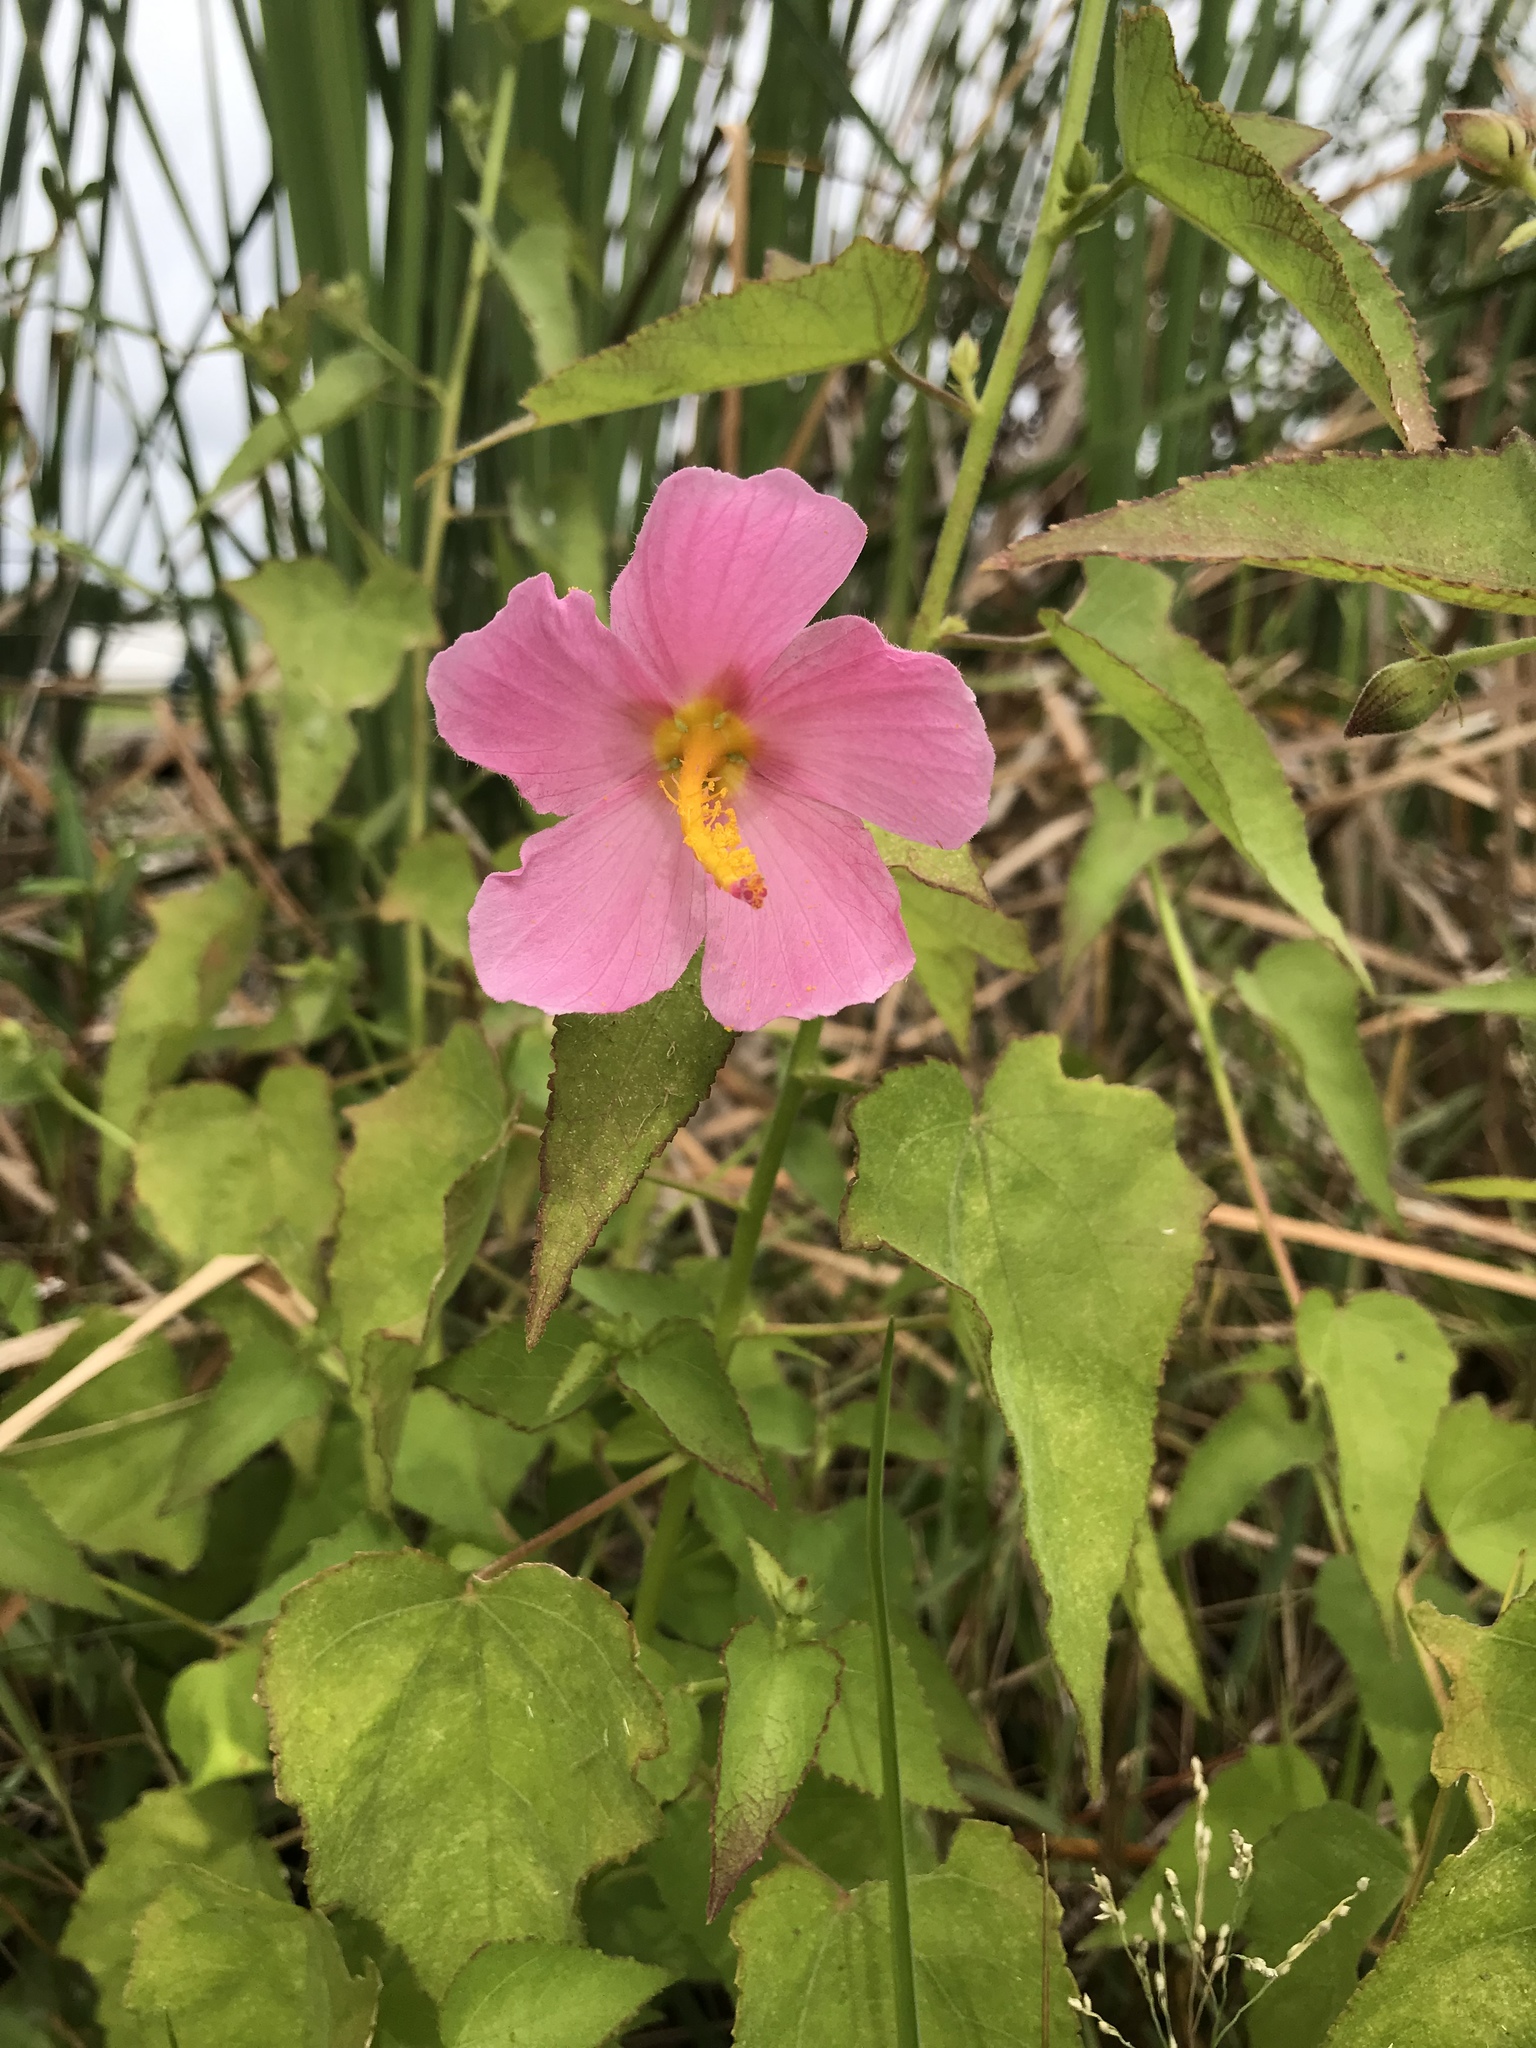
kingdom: Plantae
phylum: Tracheophyta
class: Magnoliopsida
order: Malvales
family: Malvaceae
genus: Kosteletzkya
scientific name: Kosteletzkya pentacarpos
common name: Virginia saltmarsh mallow
